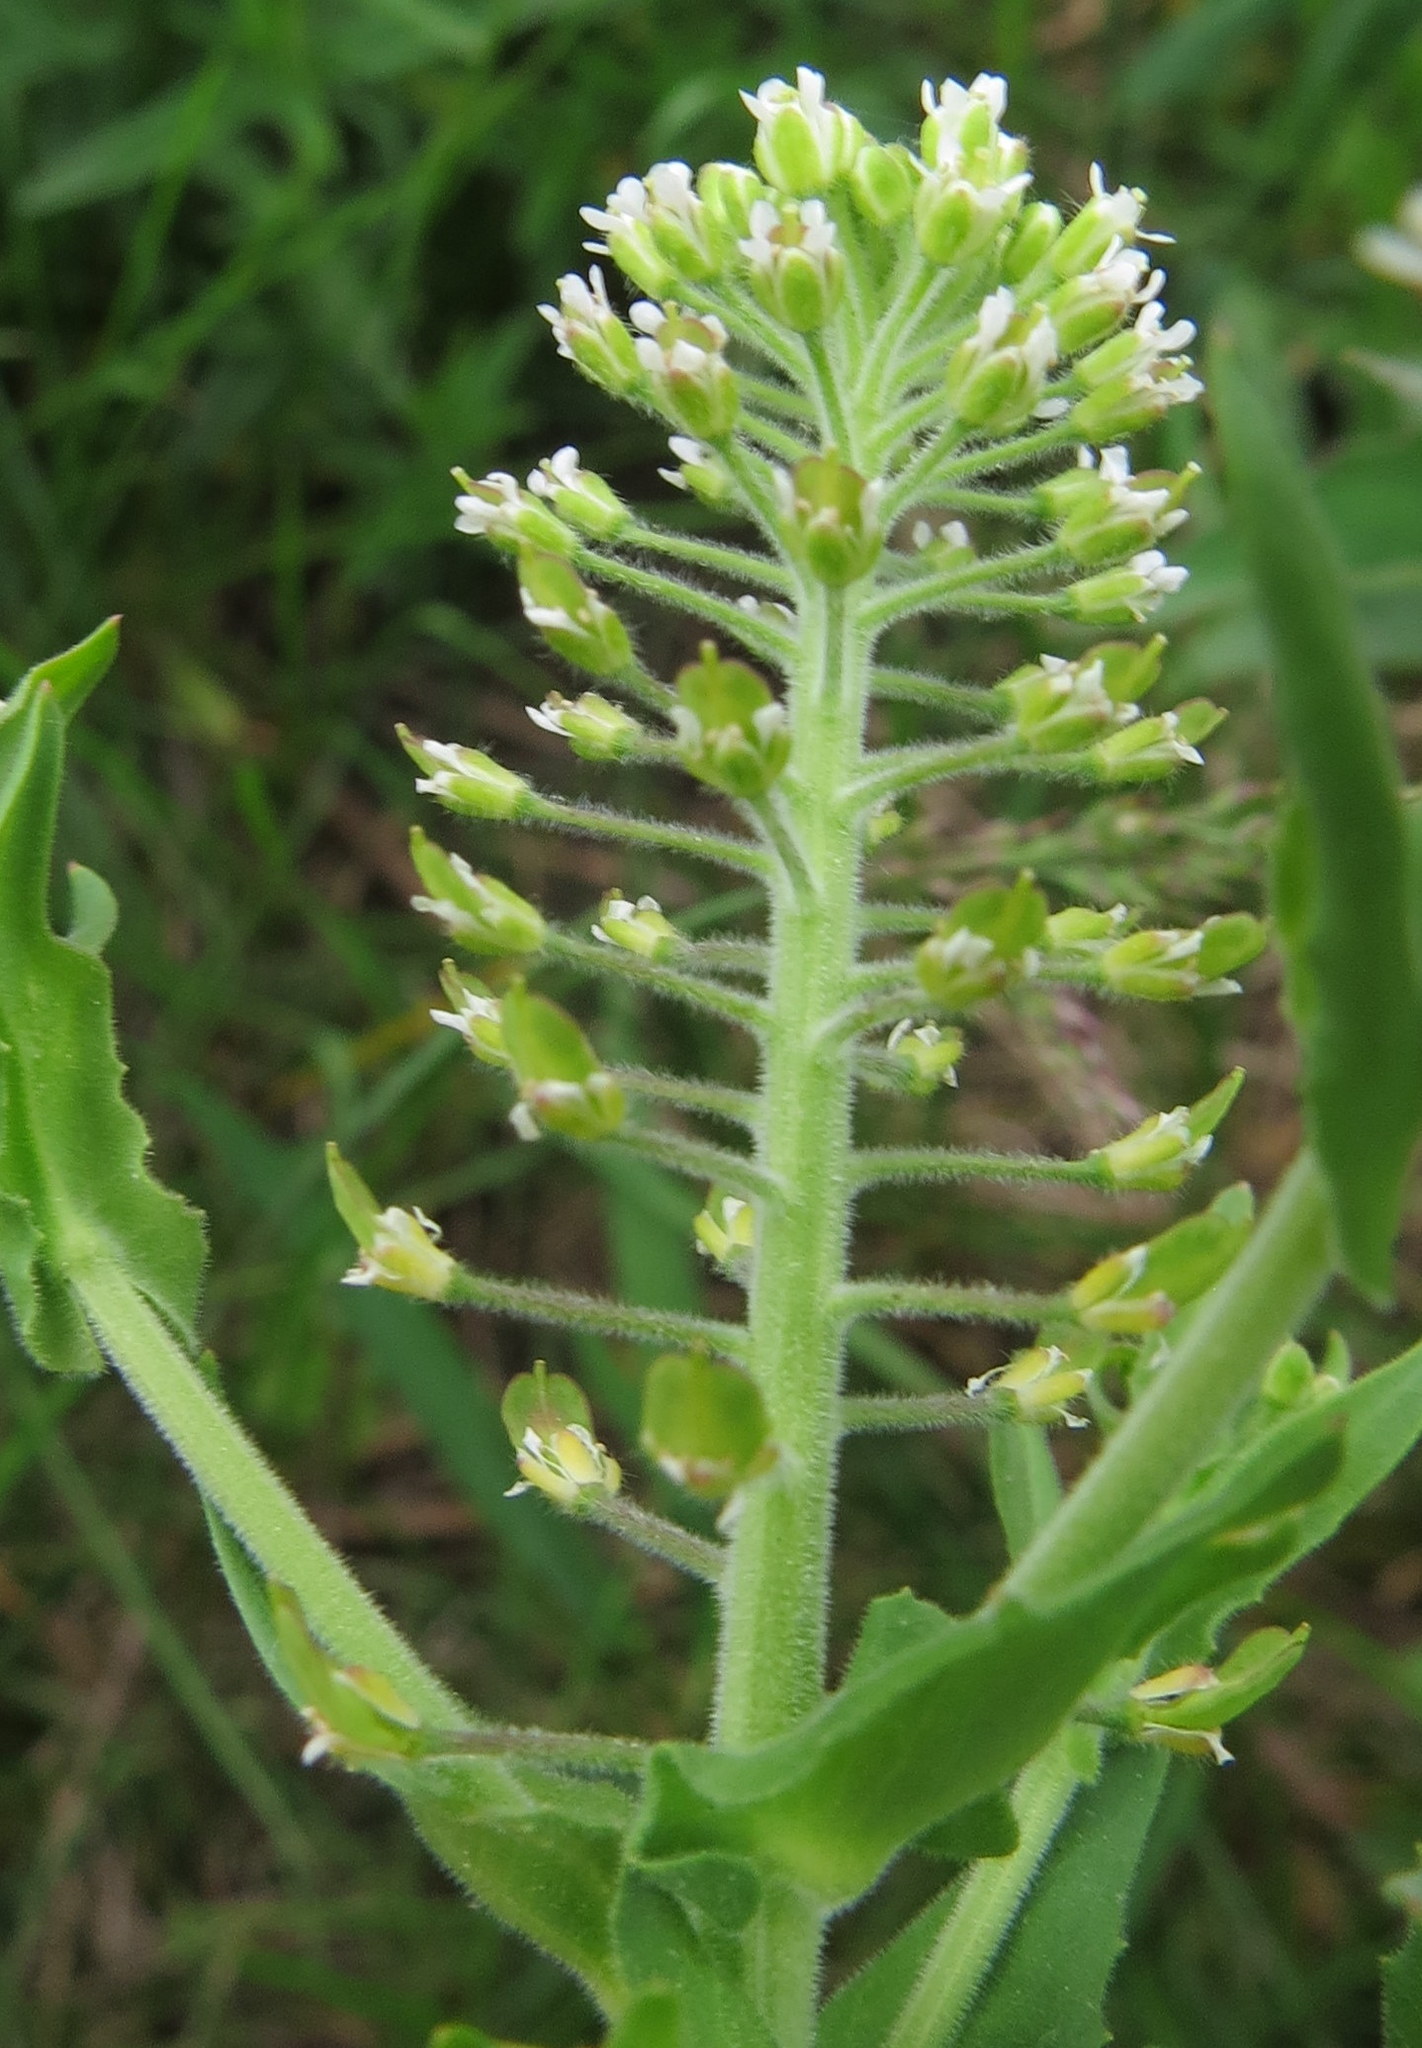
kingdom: Plantae
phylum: Tracheophyta
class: Magnoliopsida
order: Brassicales
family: Brassicaceae
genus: Lepidium
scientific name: Lepidium campestre
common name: Field pepperwort
